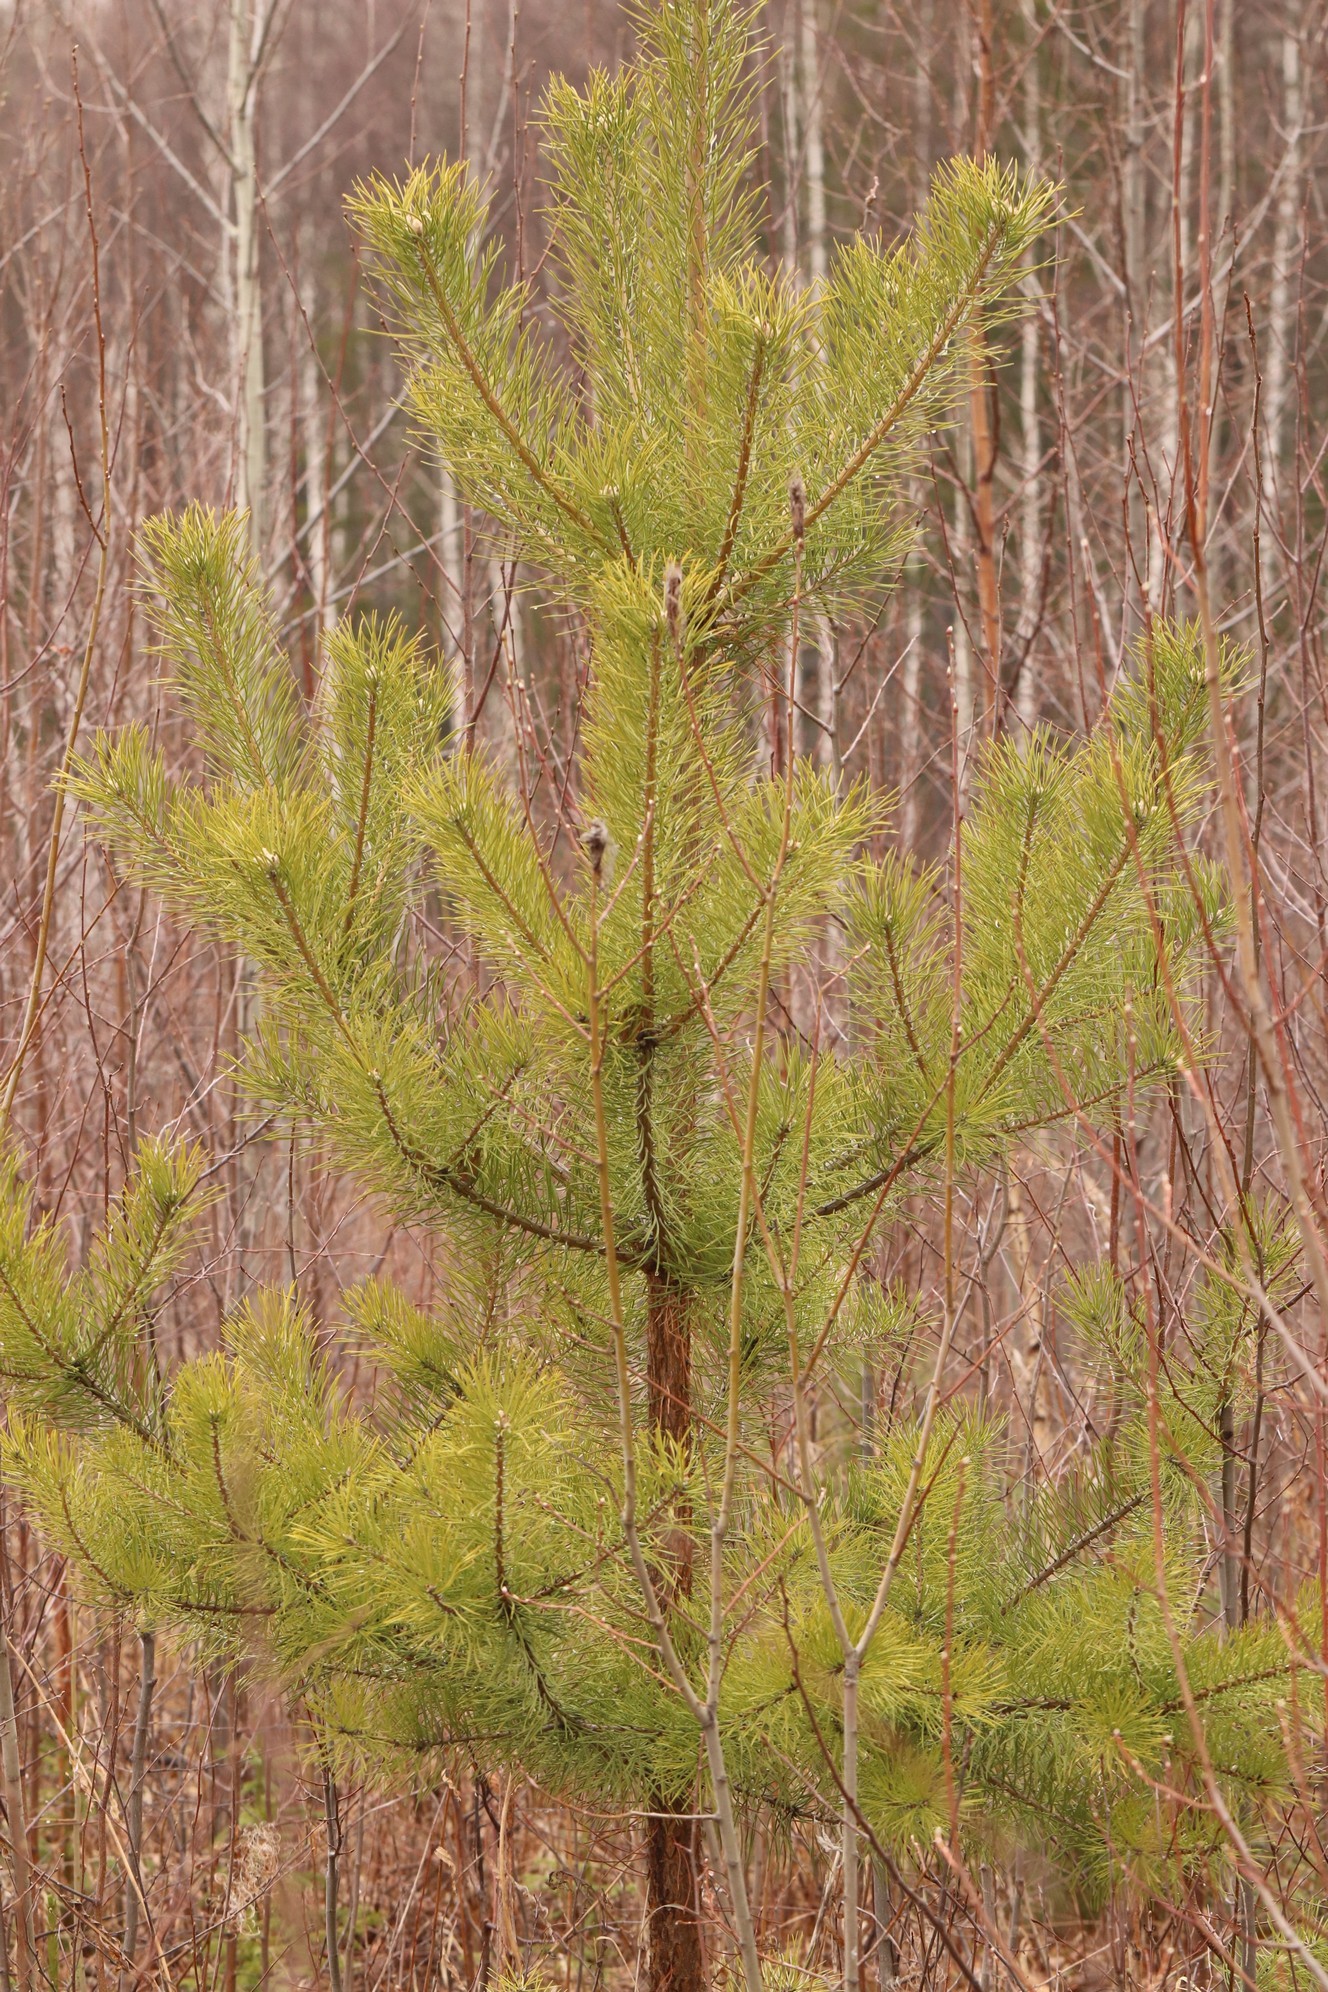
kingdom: Plantae
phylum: Tracheophyta
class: Pinopsida
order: Pinales
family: Pinaceae
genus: Pinus
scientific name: Pinus sylvestris
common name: Scots pine
